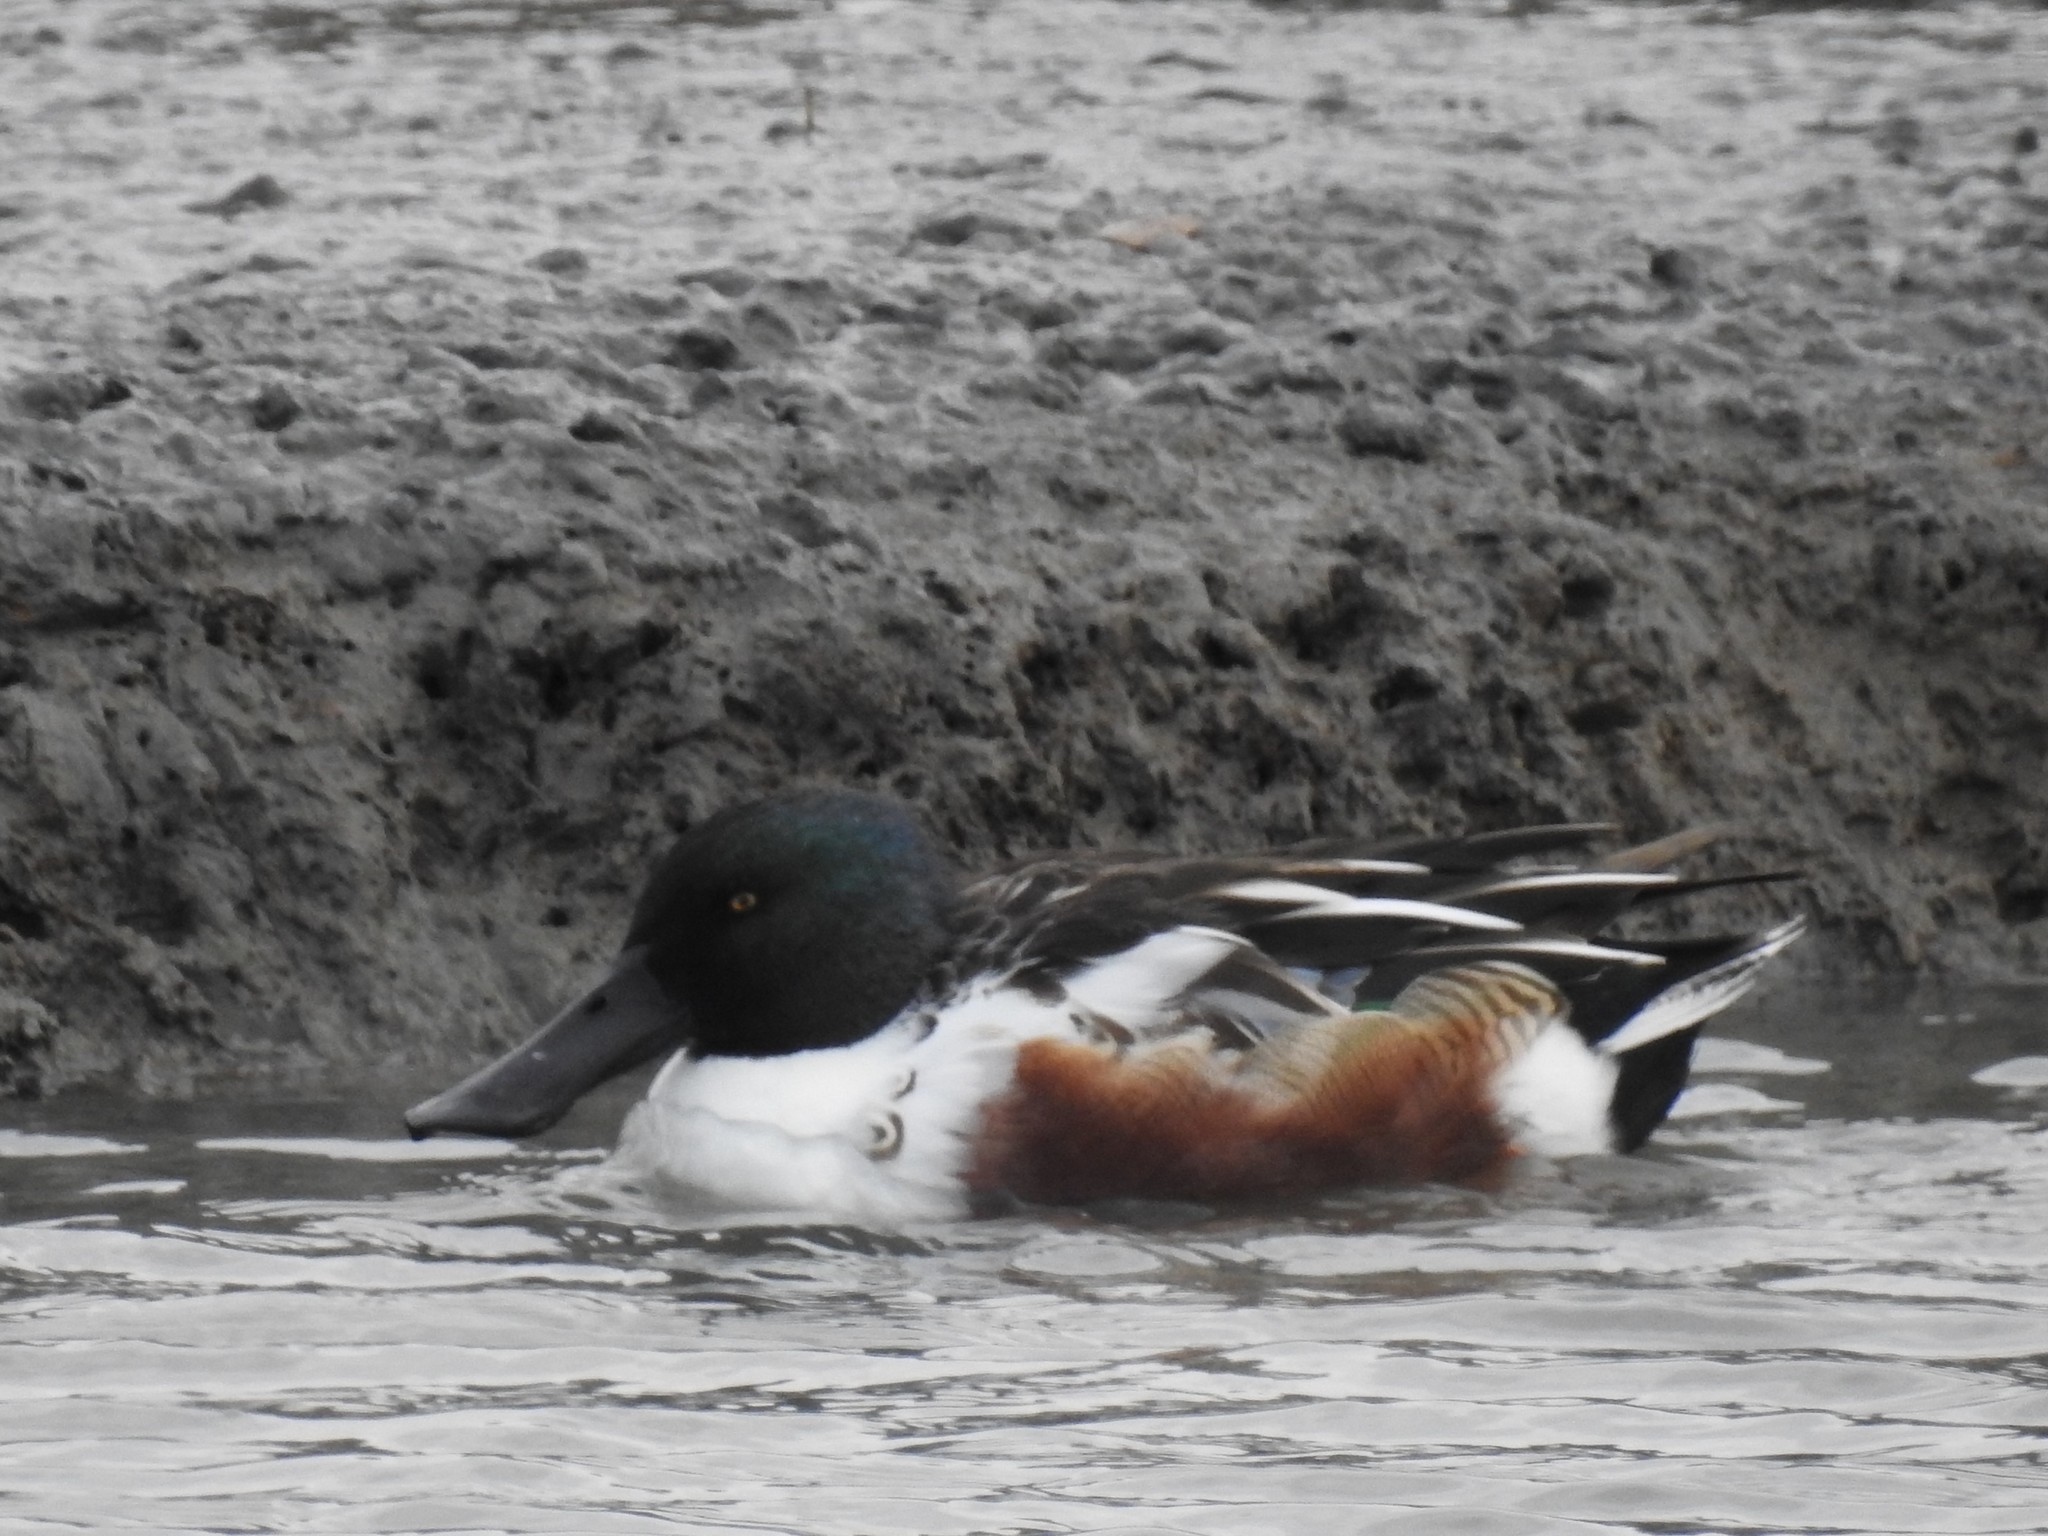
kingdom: Animalia
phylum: Chordata
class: Aves
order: Anseriformes
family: Anatidae
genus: Spatula
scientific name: Spatula clypeata
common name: Northern shoveler
